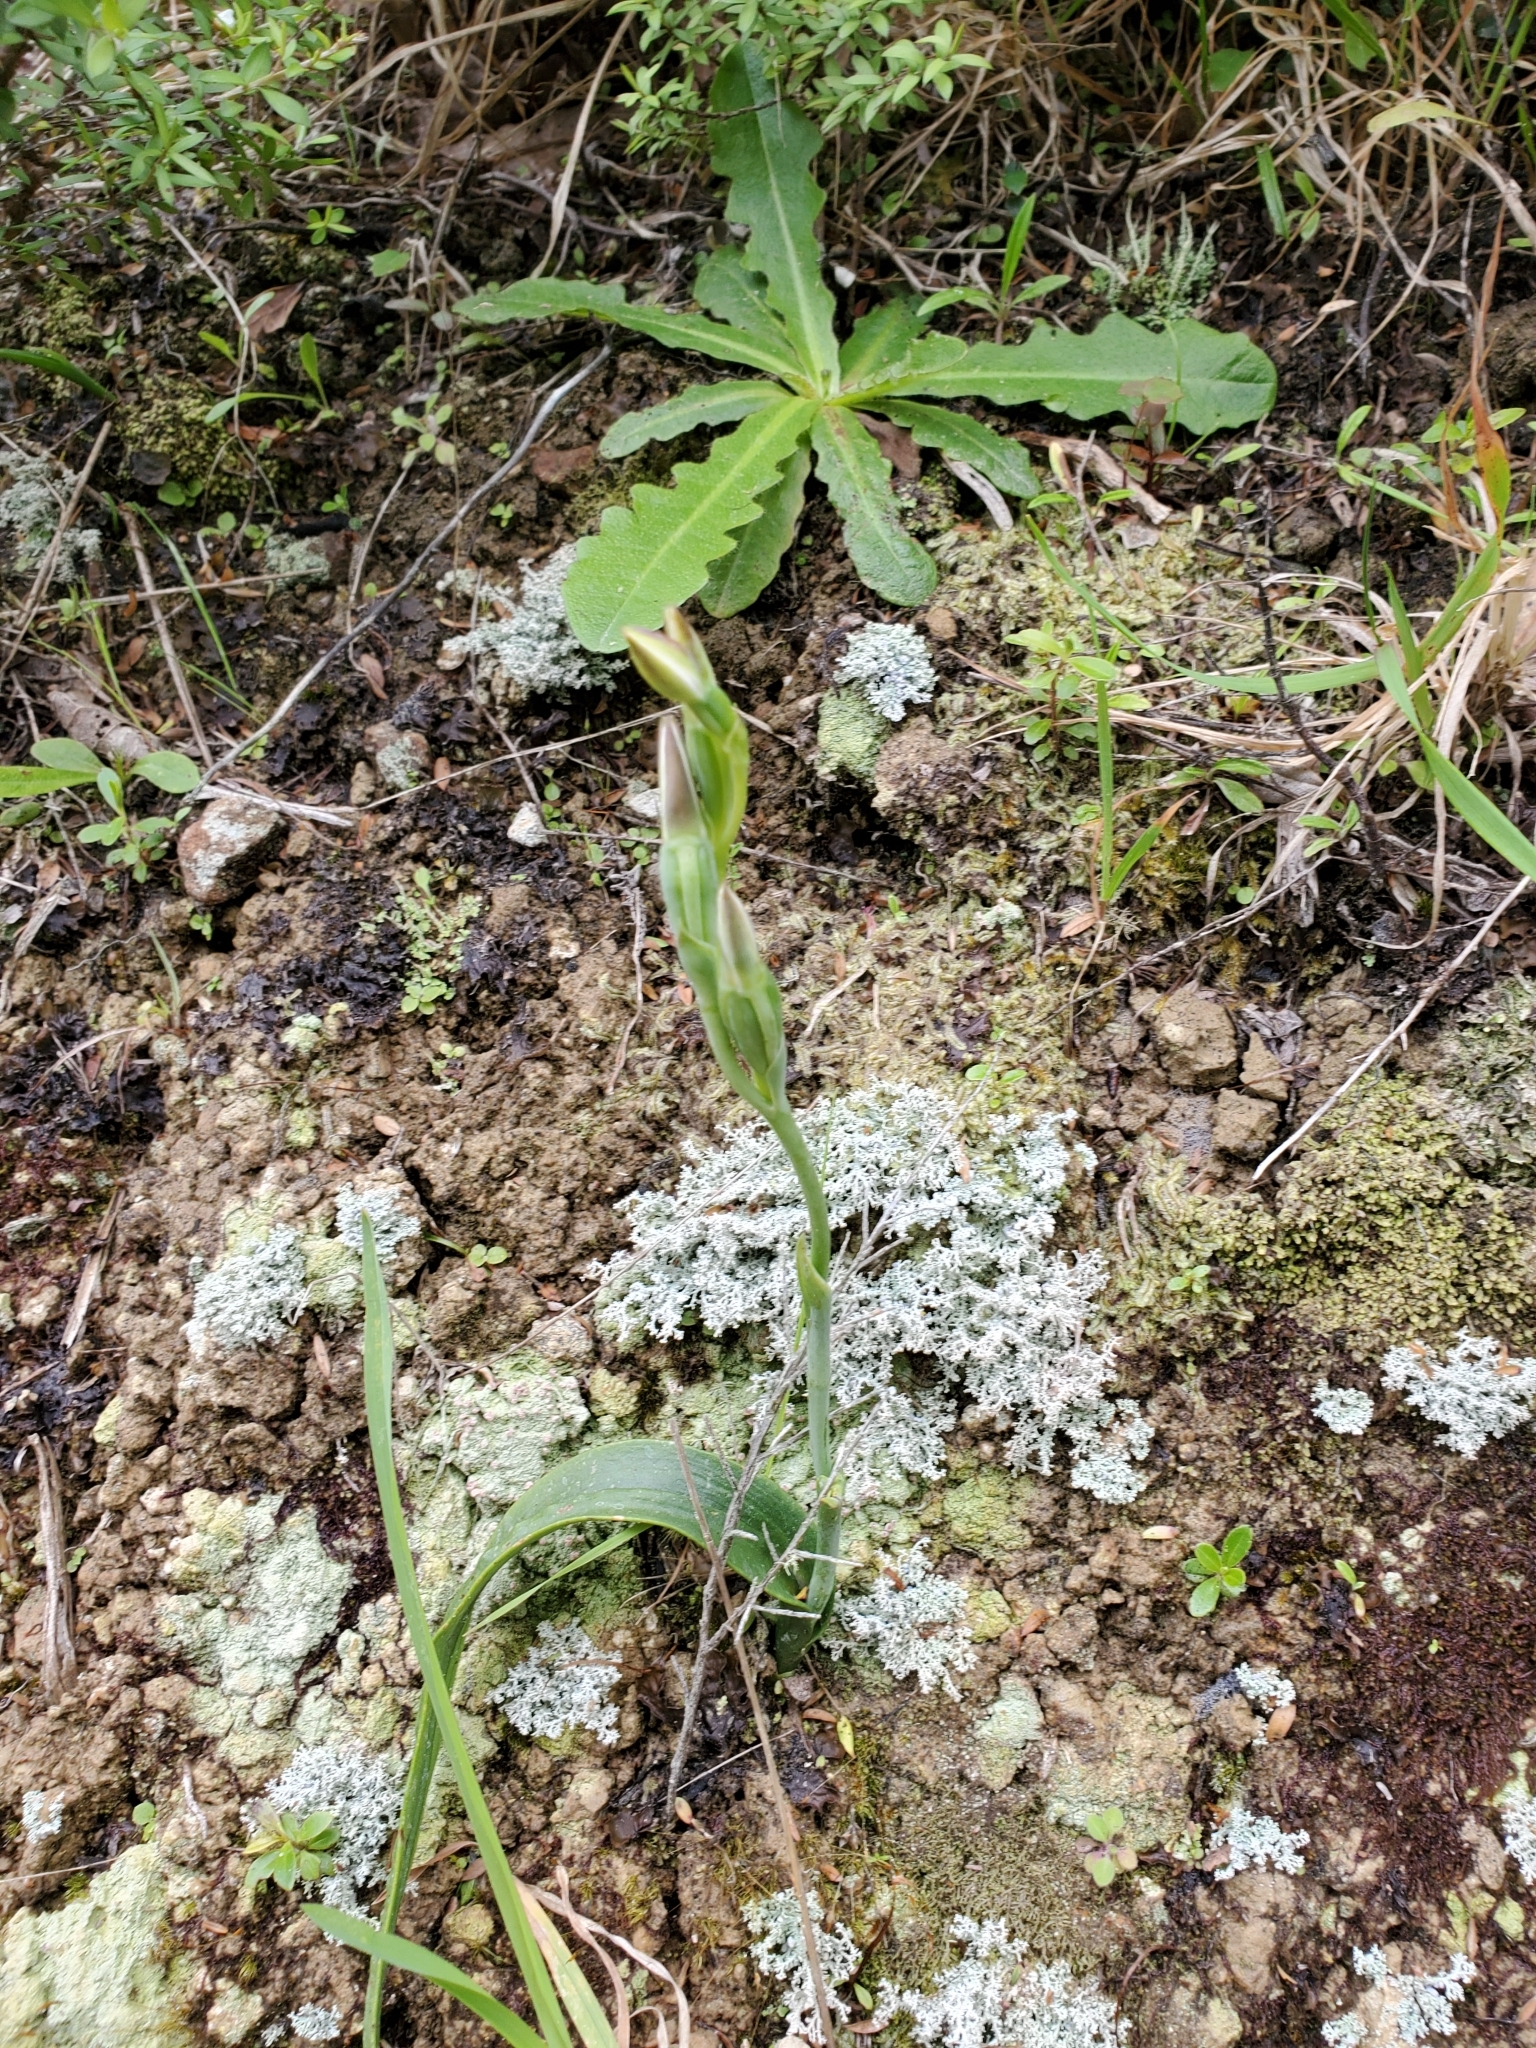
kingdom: Plantae
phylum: Tracheophyta
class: Liliopsida
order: Asparagales
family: Orchidaceae
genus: Thelymitra
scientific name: Thelymitra longifolia
